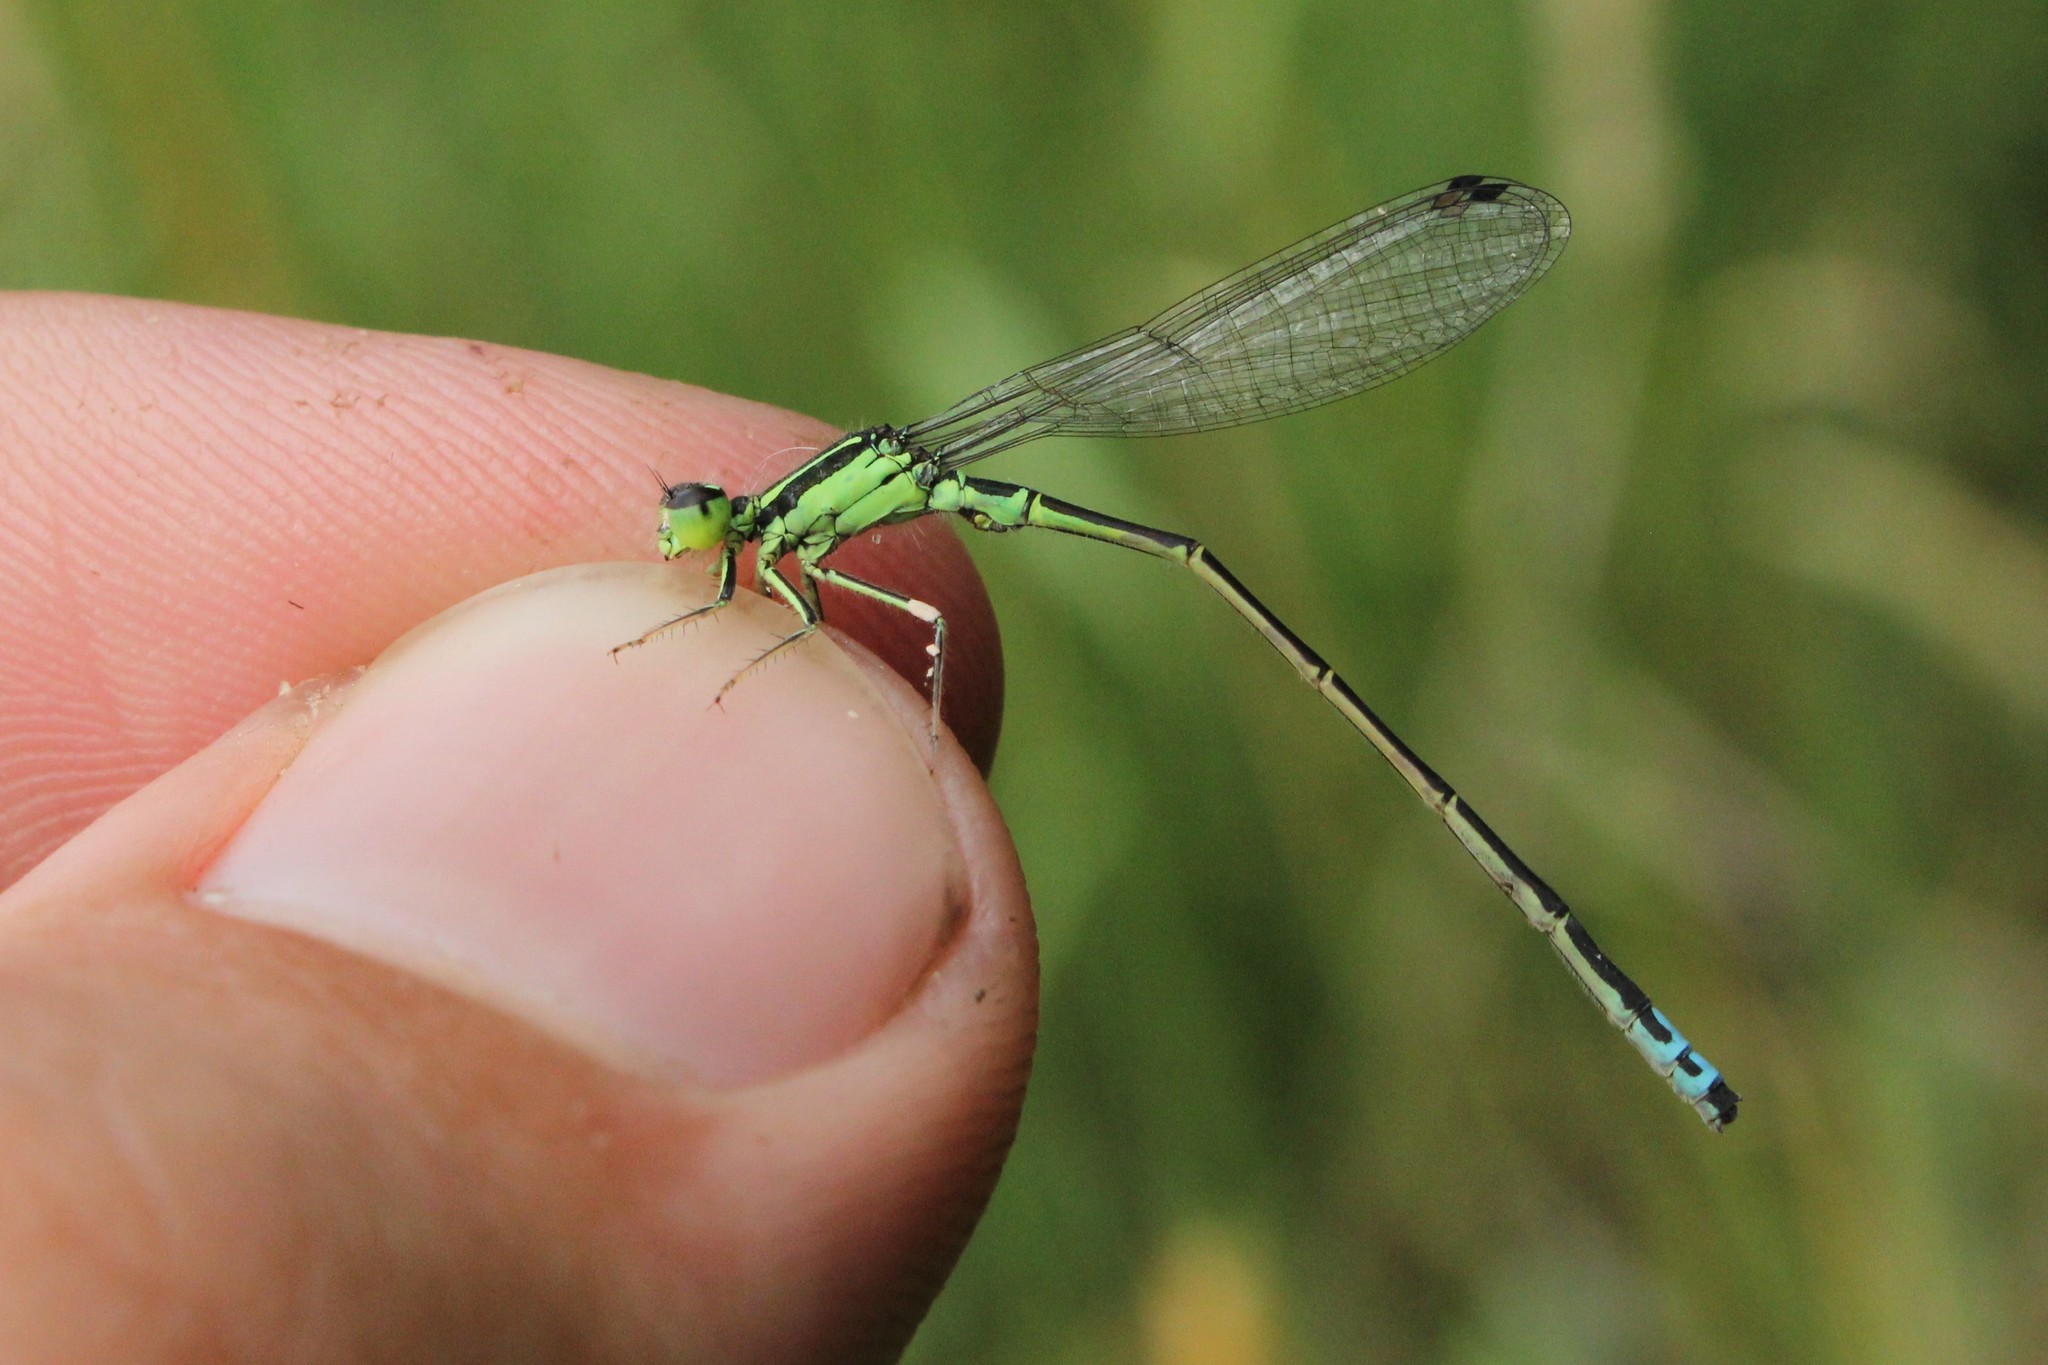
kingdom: Animalia
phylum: Arthropoda
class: Insecta
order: Odonata
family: Coenagrionidae
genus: Ischnura
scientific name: Ischnura verticalis
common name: Eastern forktail
